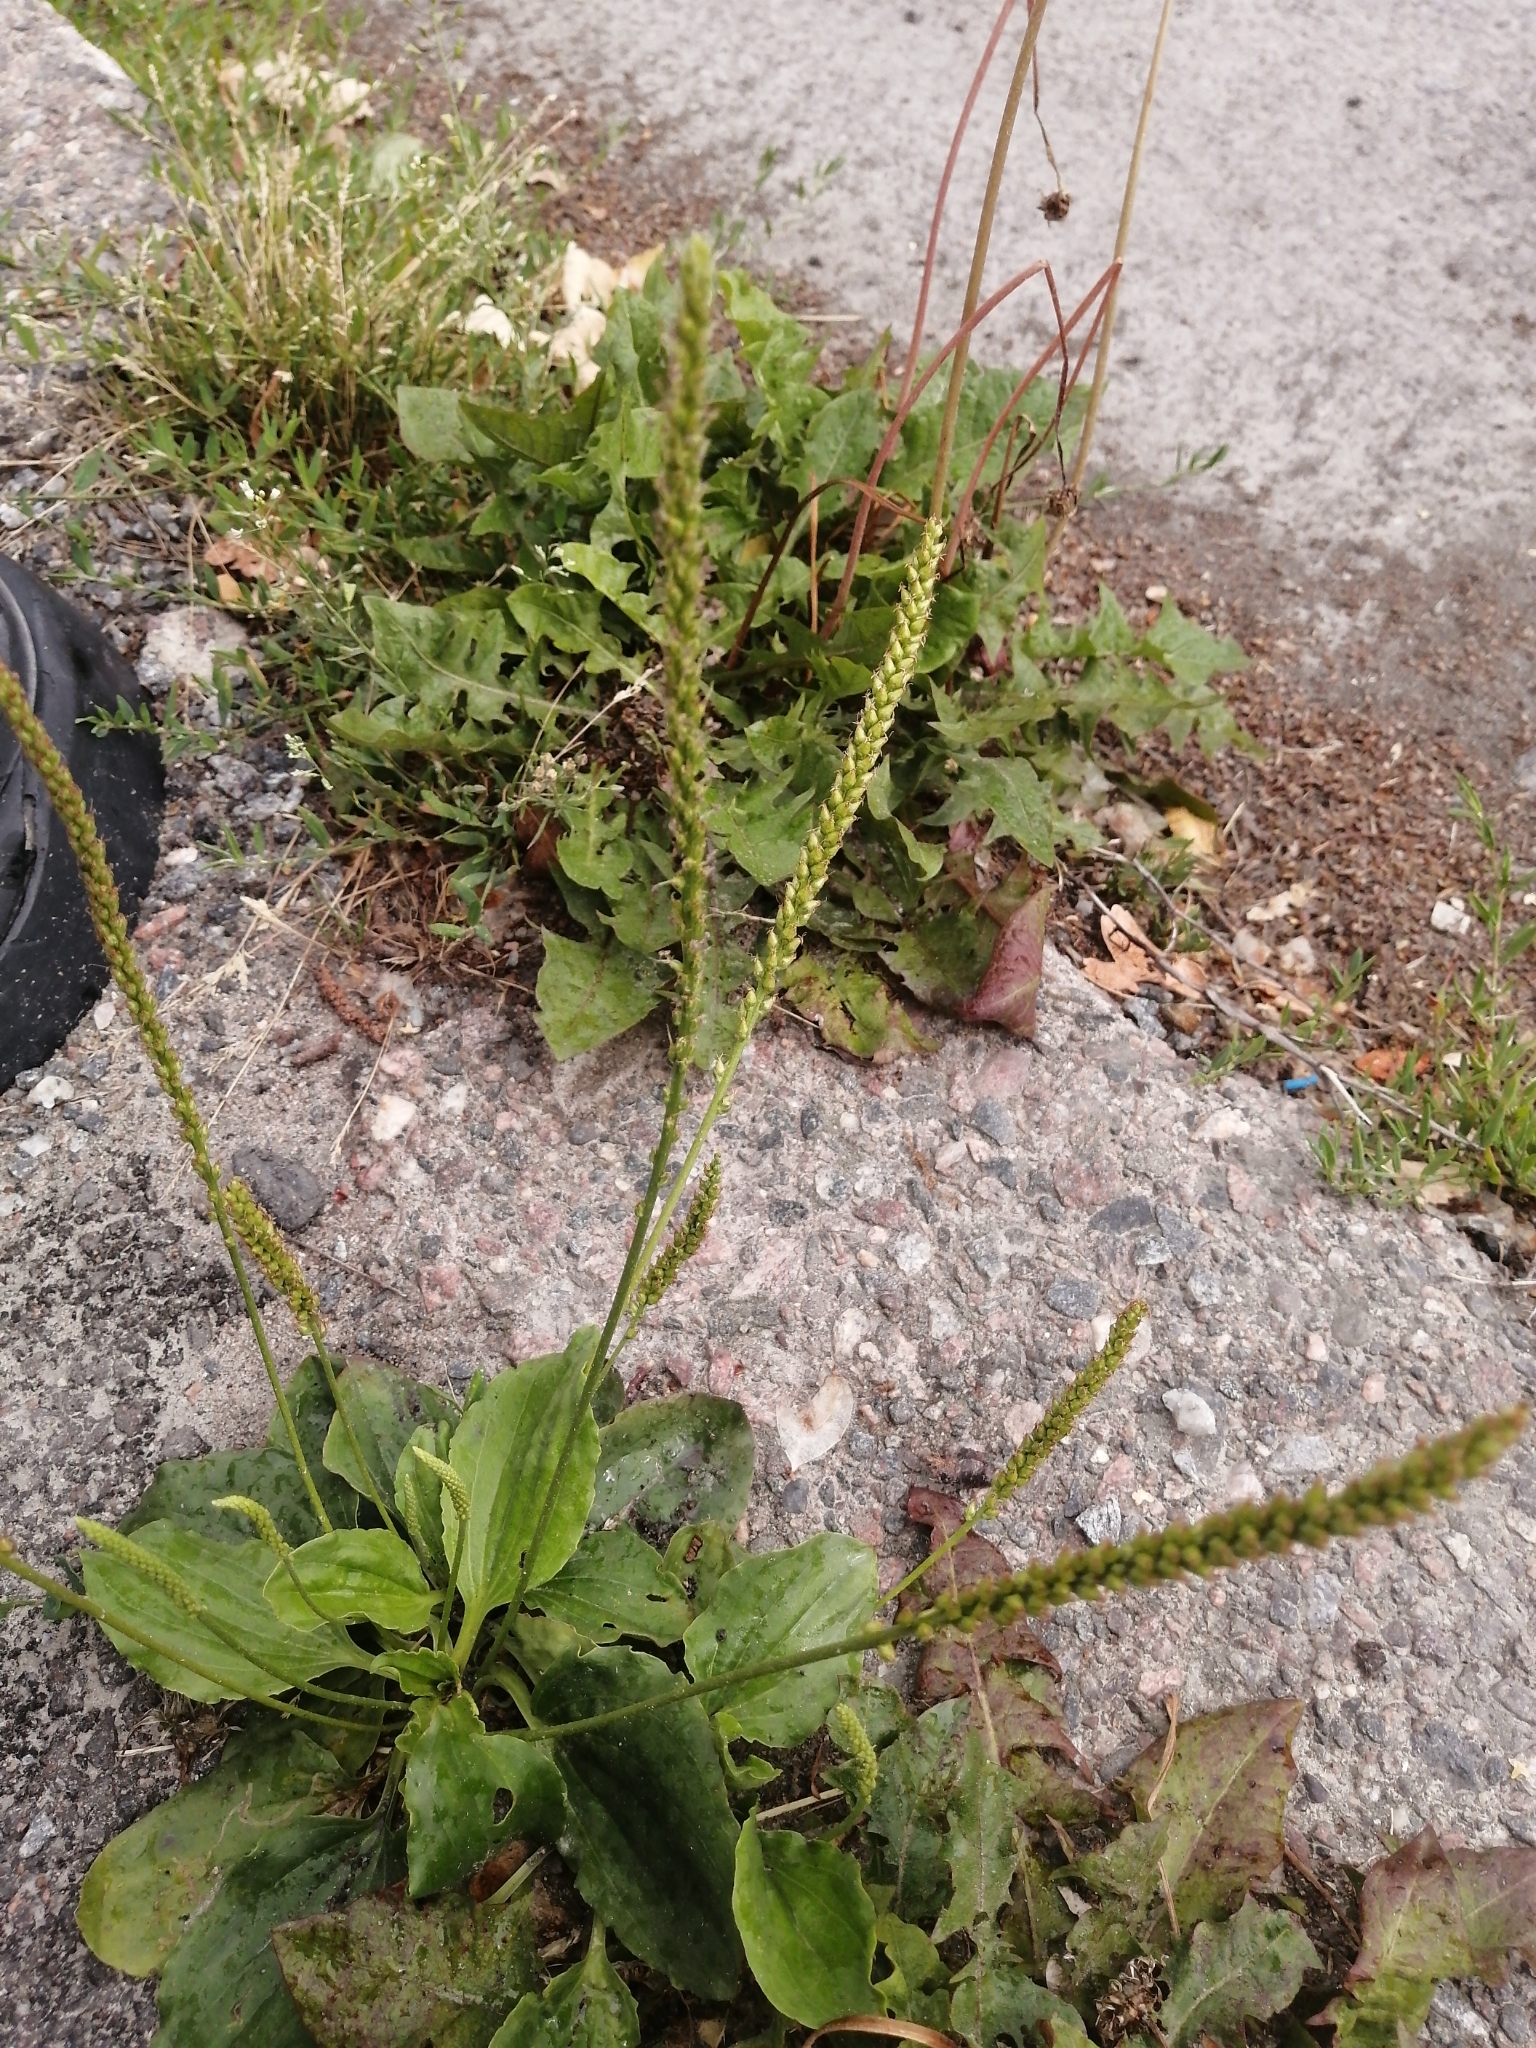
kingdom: Plantae
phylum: Tracheophyta
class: Magnoliopsida
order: Lamiales
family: Plantaginaceae
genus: Plantago
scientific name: Plantago major
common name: Common plantain
